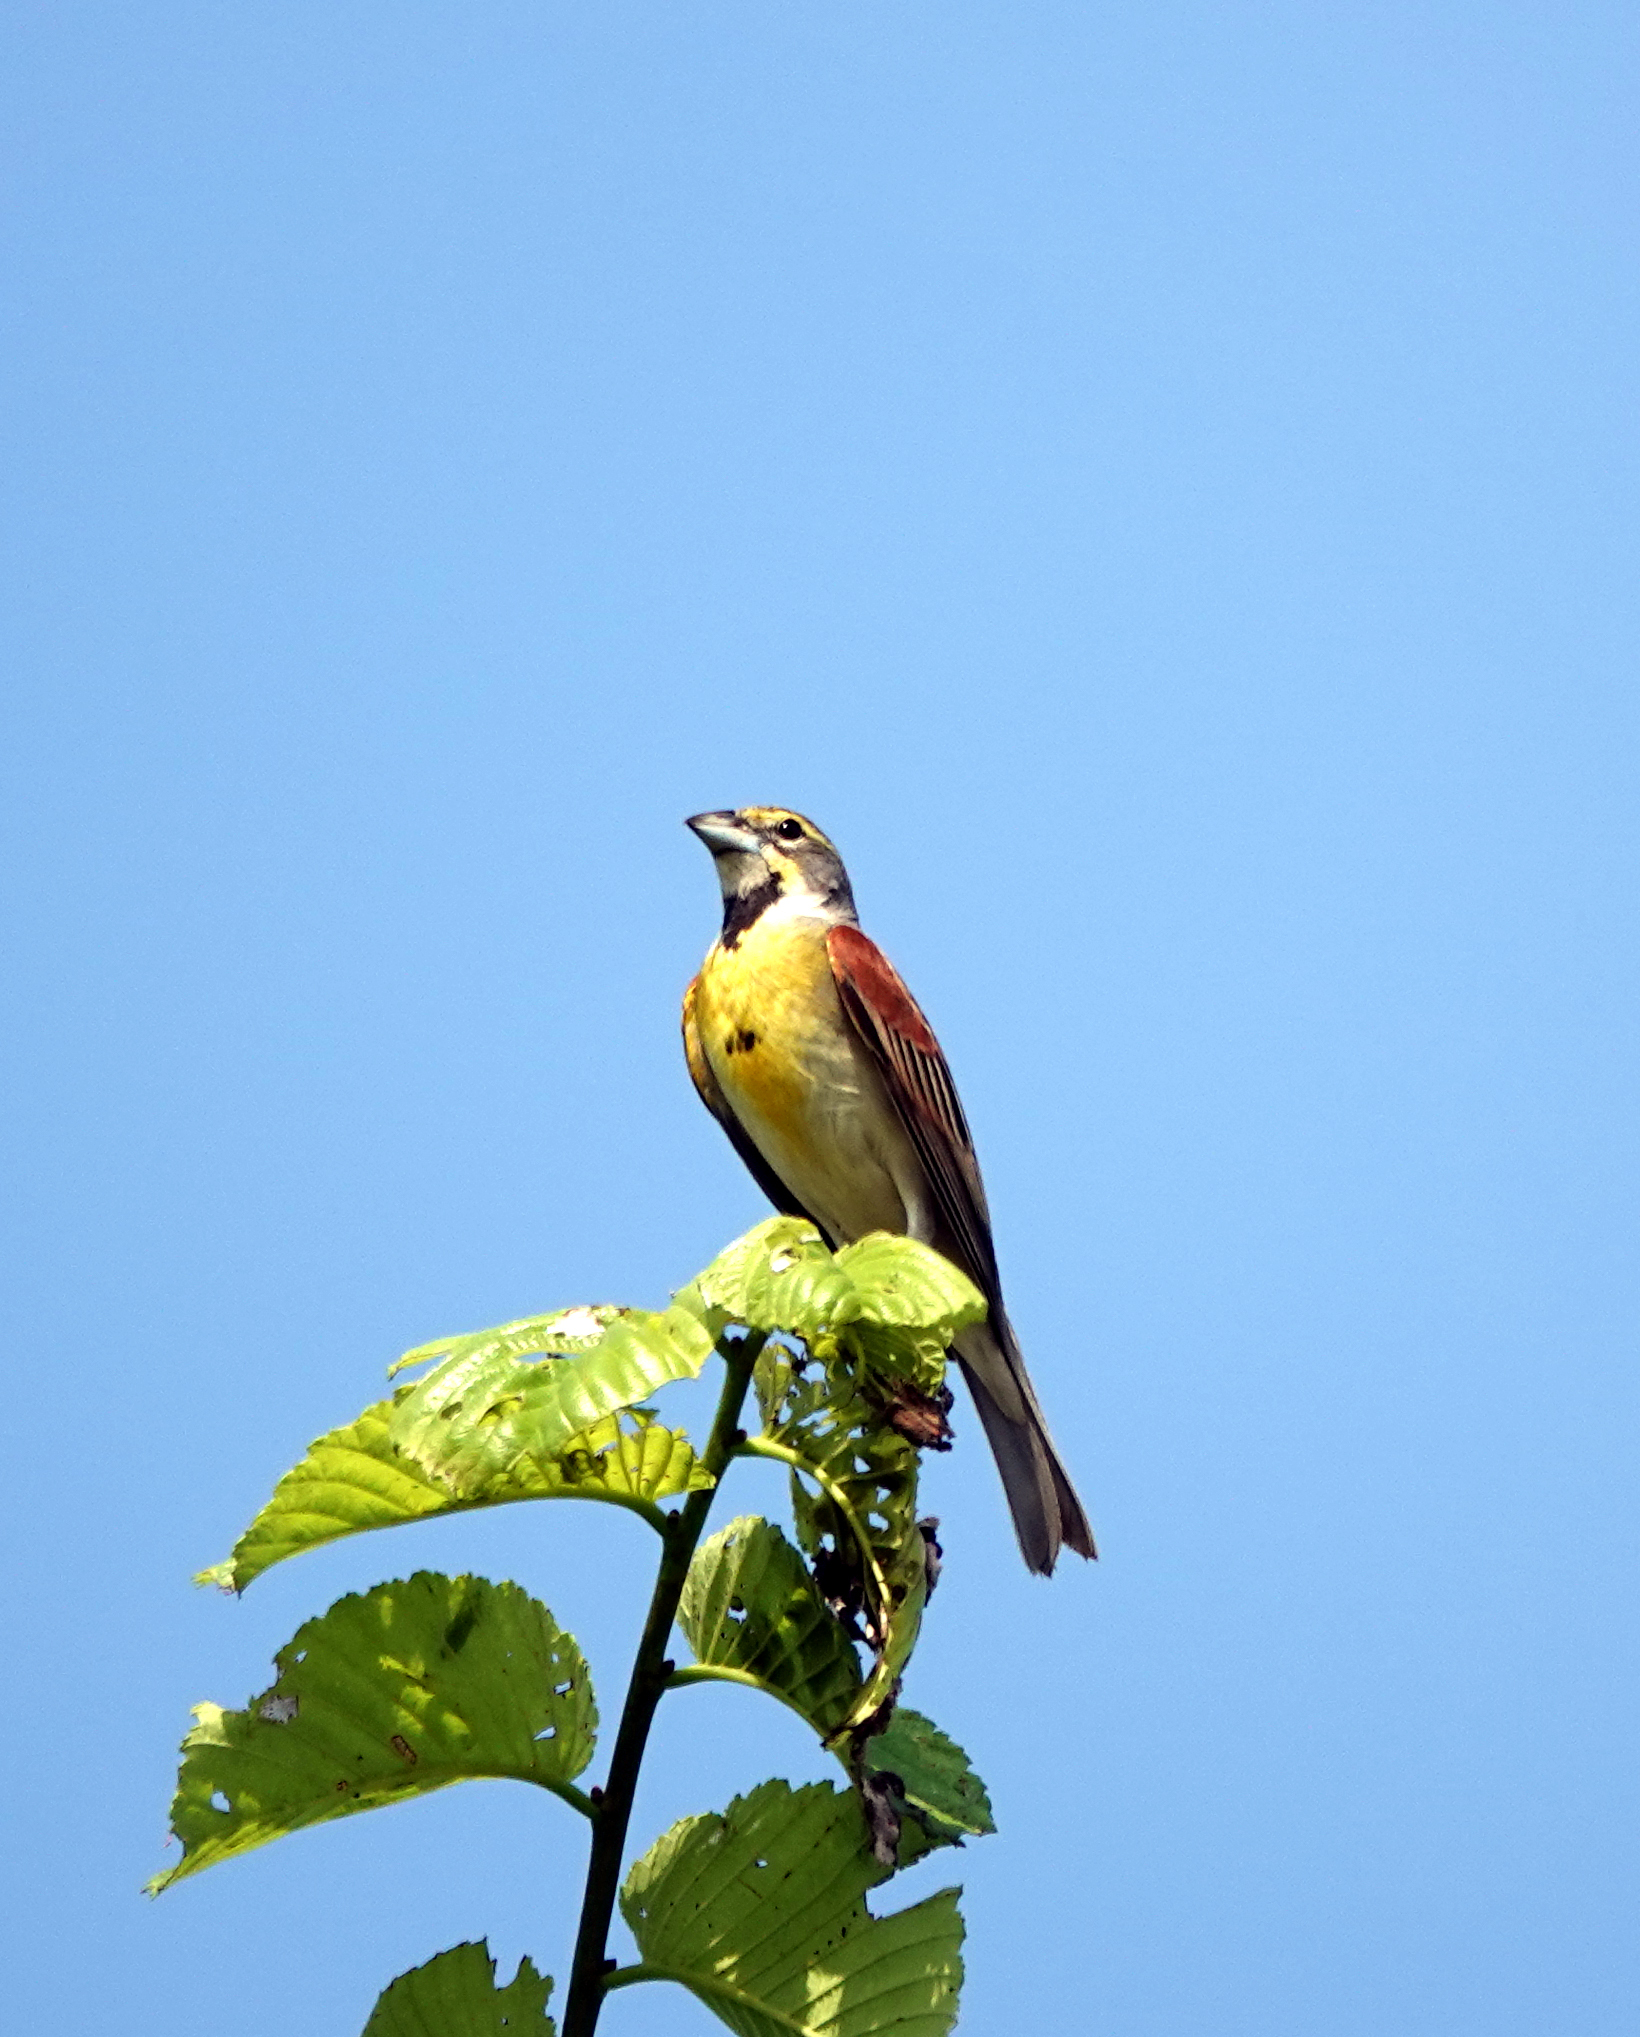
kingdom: Animalia
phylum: Chordata
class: Aves
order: Passeriformes
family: Cardinalidae
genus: Spiza
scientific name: Spiza americana
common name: Dickcissel
